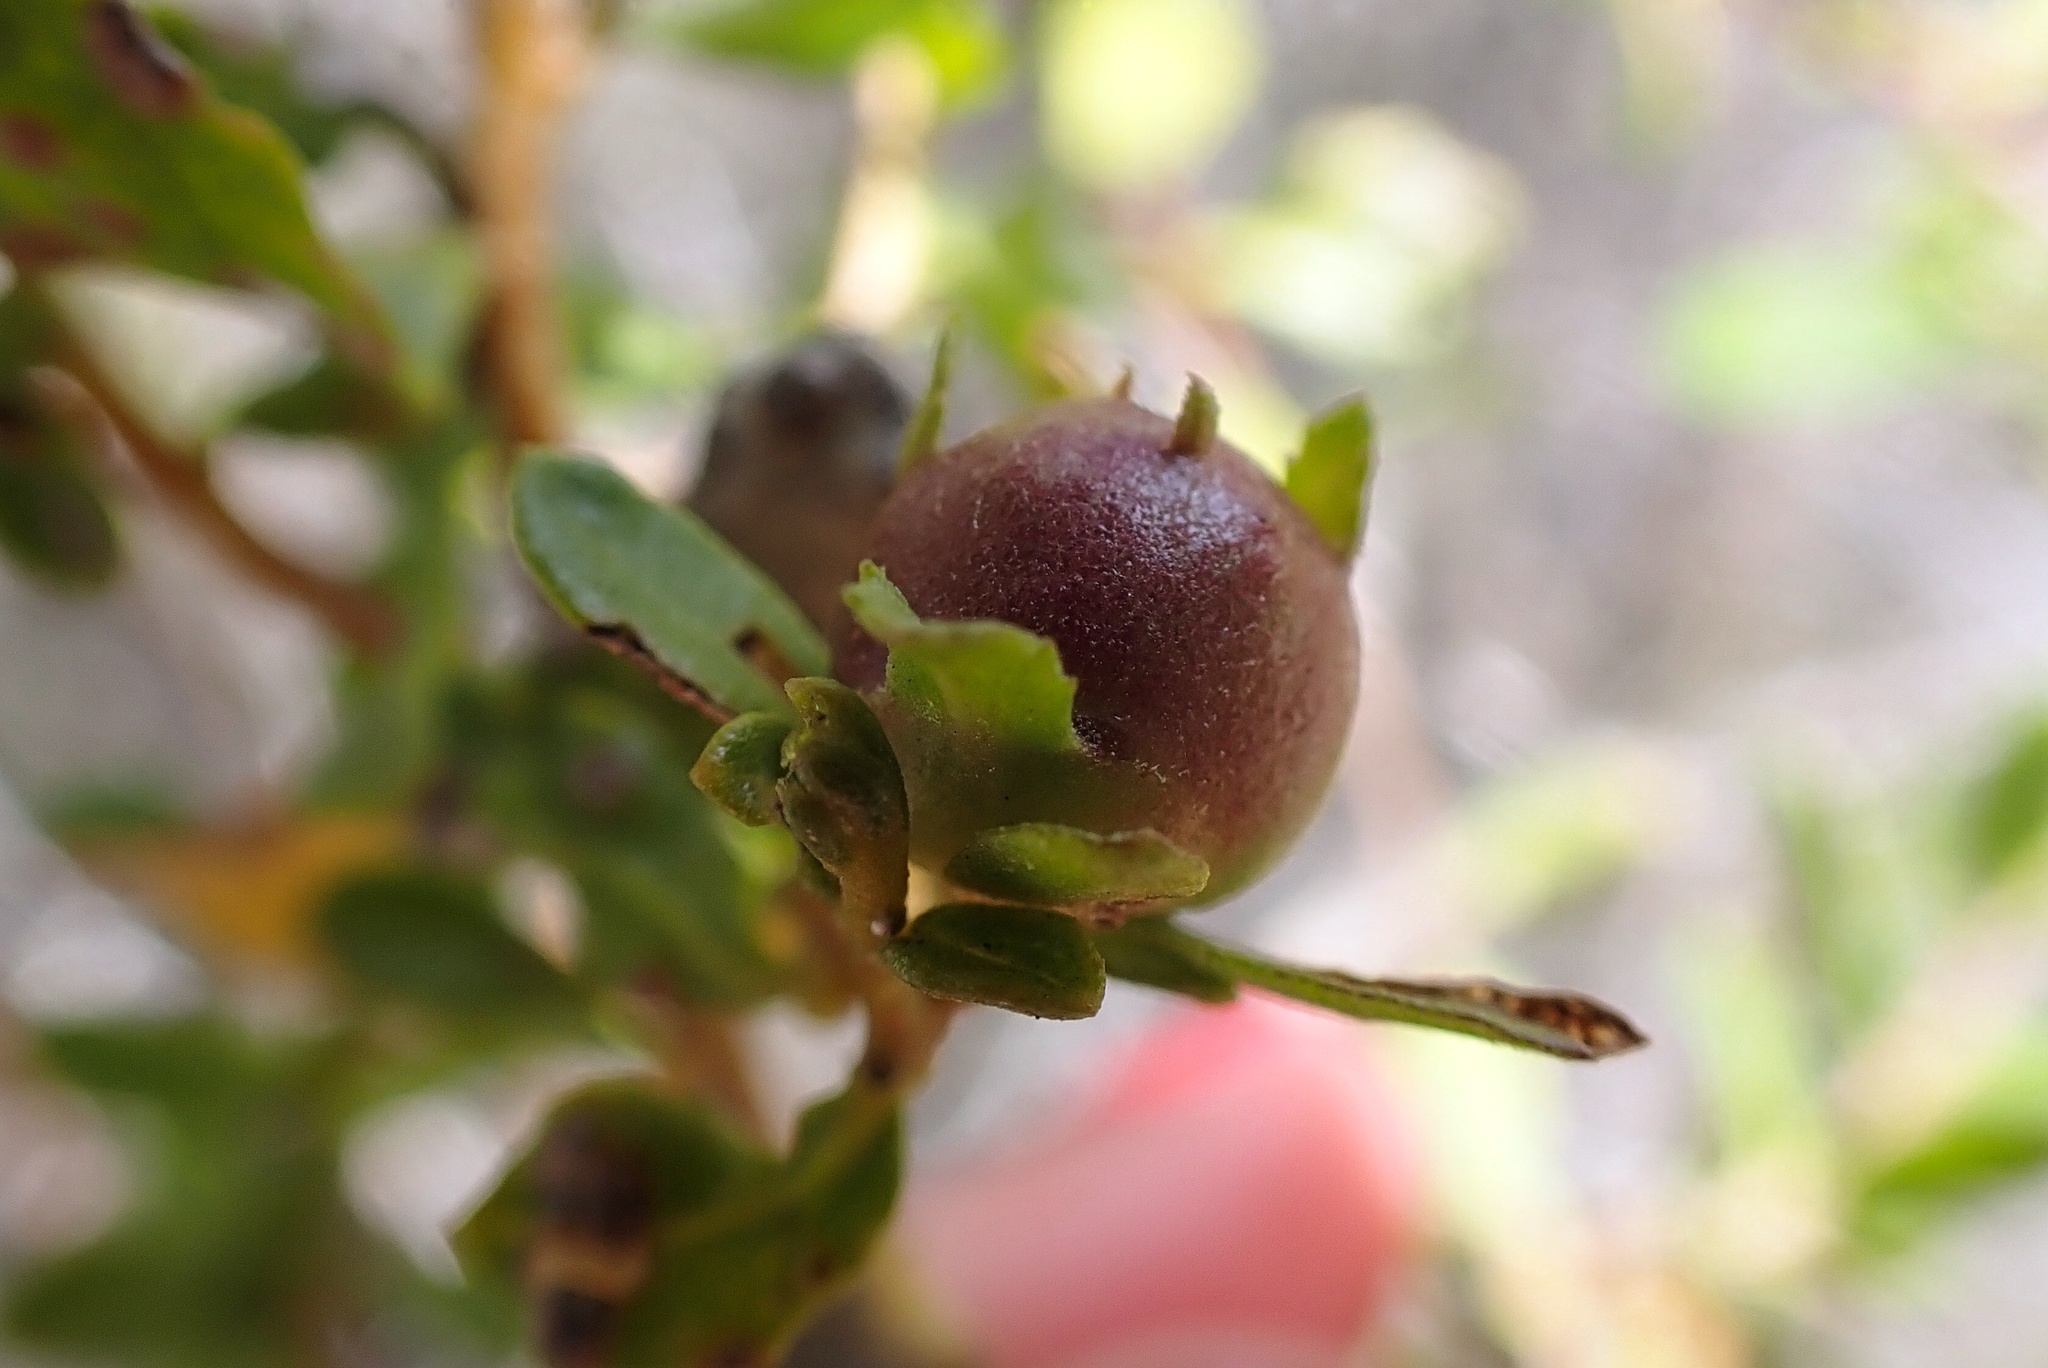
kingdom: Animalia
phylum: Arthropoda
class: Insecta
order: Diptera
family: Cecidomyiidae
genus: Rhopalomyia
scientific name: Rhopalomyia californica
